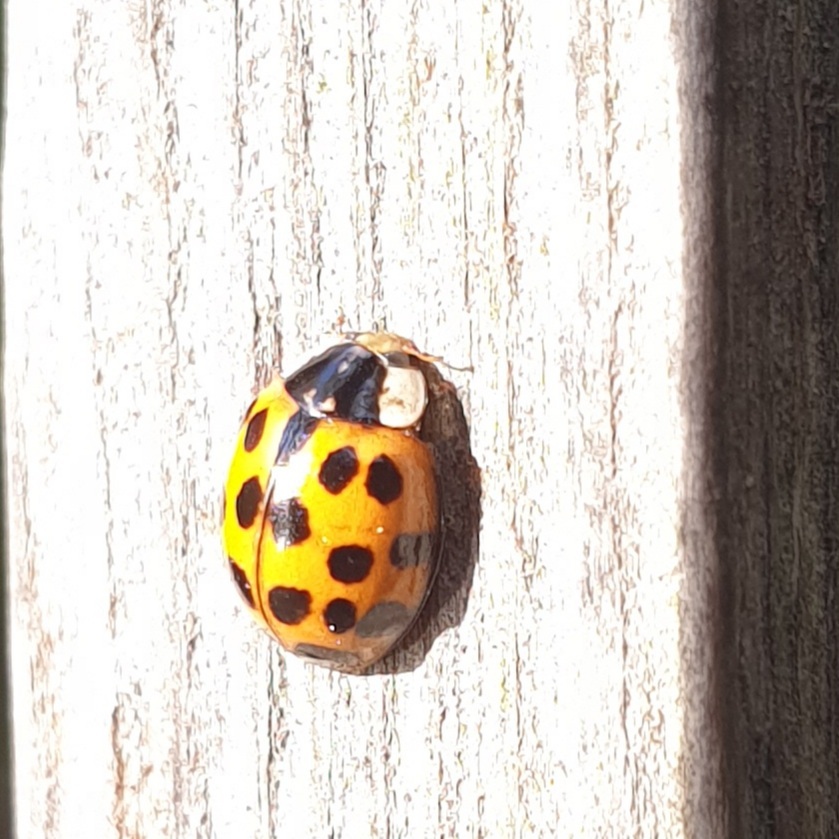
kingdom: Animalia
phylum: Arthropoda
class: Insecta
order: Coleoptera
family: Coccinellidae
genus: Harmonia
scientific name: Harmonia axyridis
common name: Harlequin ladybird
